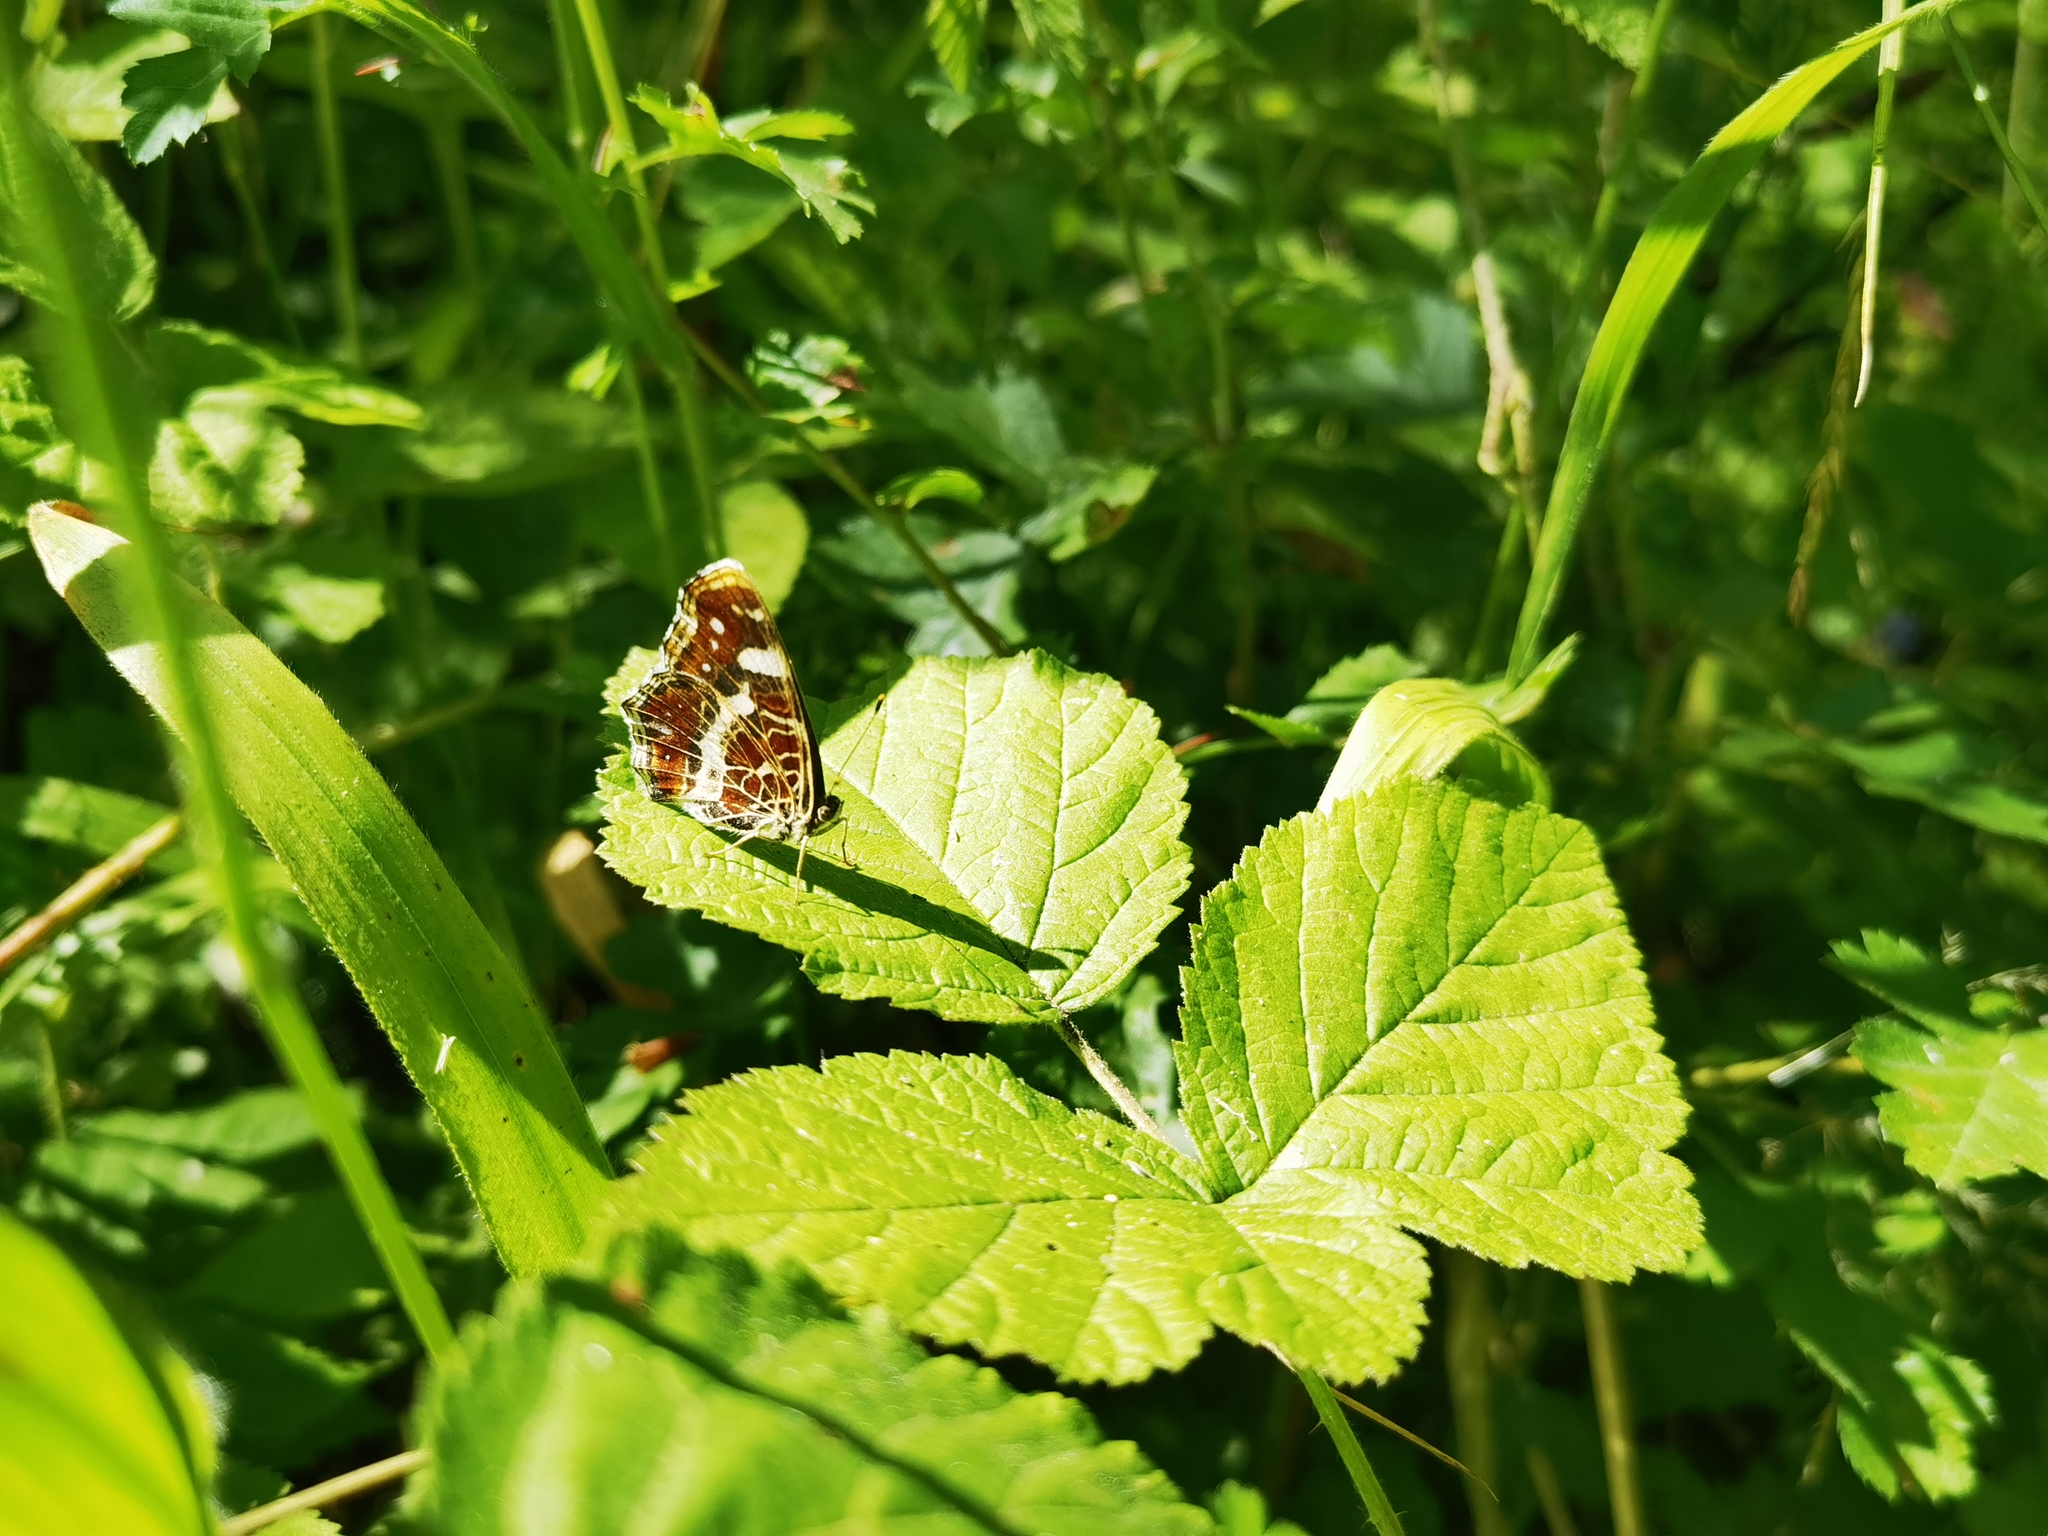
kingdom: Animalia
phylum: Arthropoda
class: Insecta
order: Lepidoptera
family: Nymphalidae
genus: Araschnia
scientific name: Araschnia levana
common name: Map butterfly
